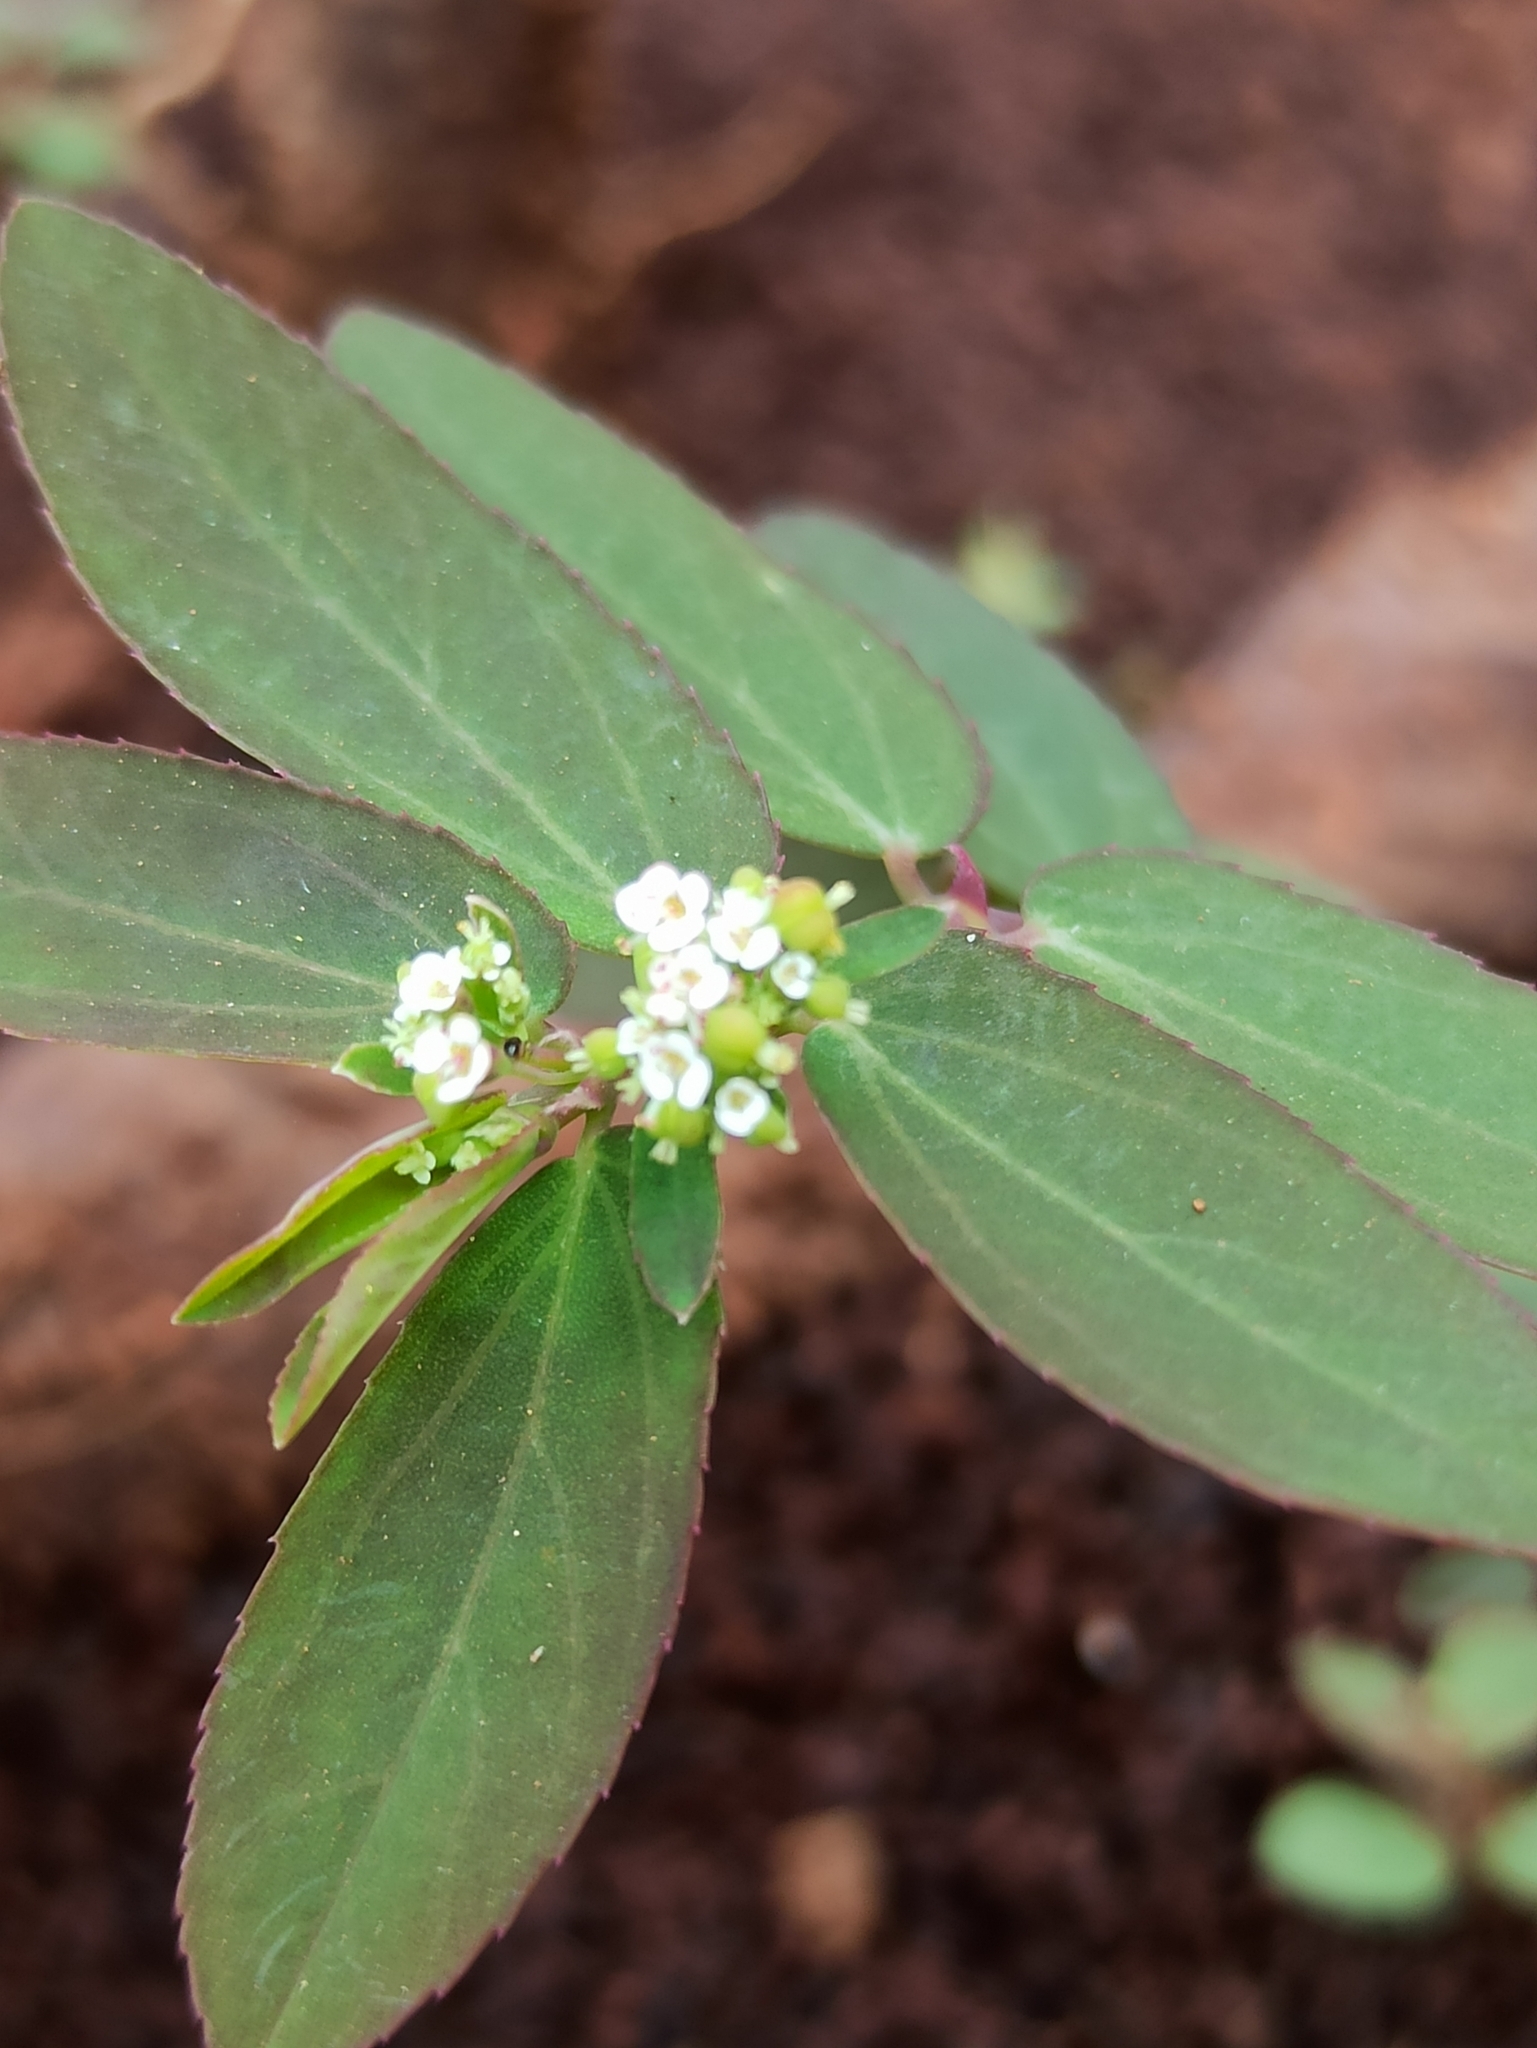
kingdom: Plantae
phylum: Tracheophyta
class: Magnoliopsida
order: Malpighiales
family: Euphorbiaceae
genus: Euphorbia
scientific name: Euphorbia hypericifolia
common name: Graceful sandmat
